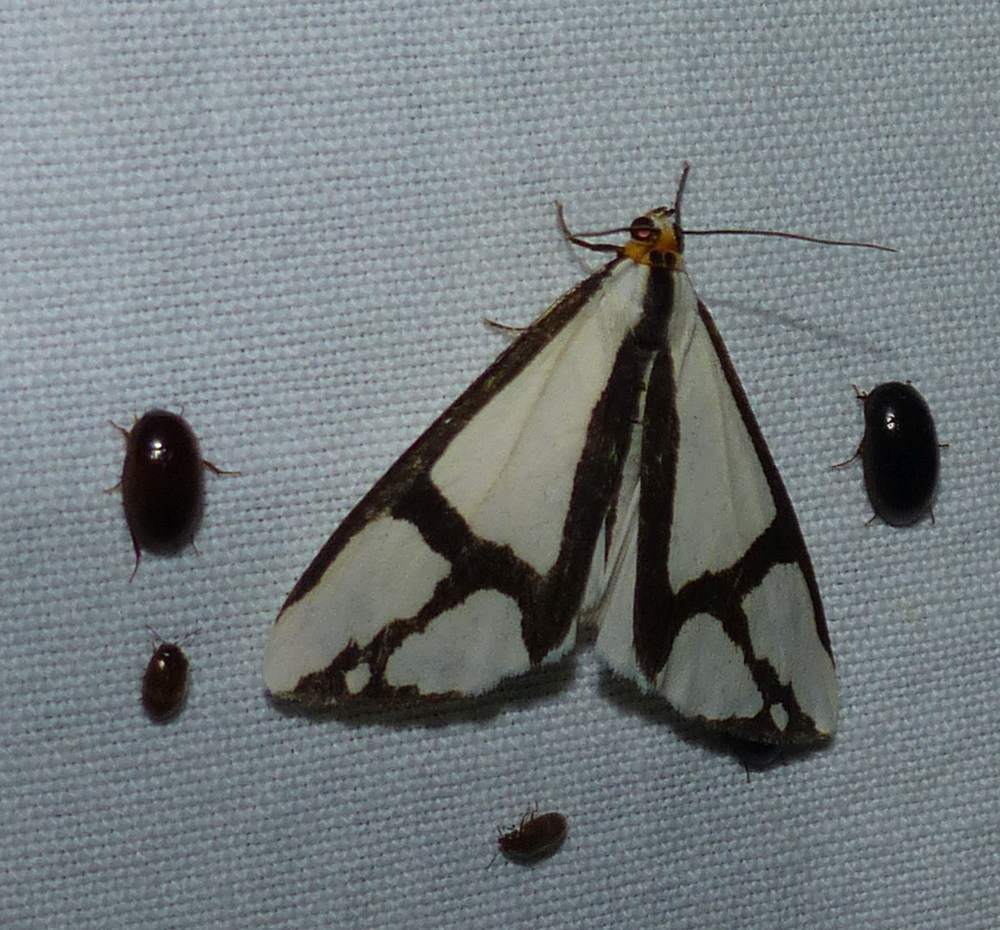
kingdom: Animalia
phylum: Arthropoda
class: Insecta
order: Lepidoptera
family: Erebidae
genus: Haploa
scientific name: Haploa contigua
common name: Neighbor moth
